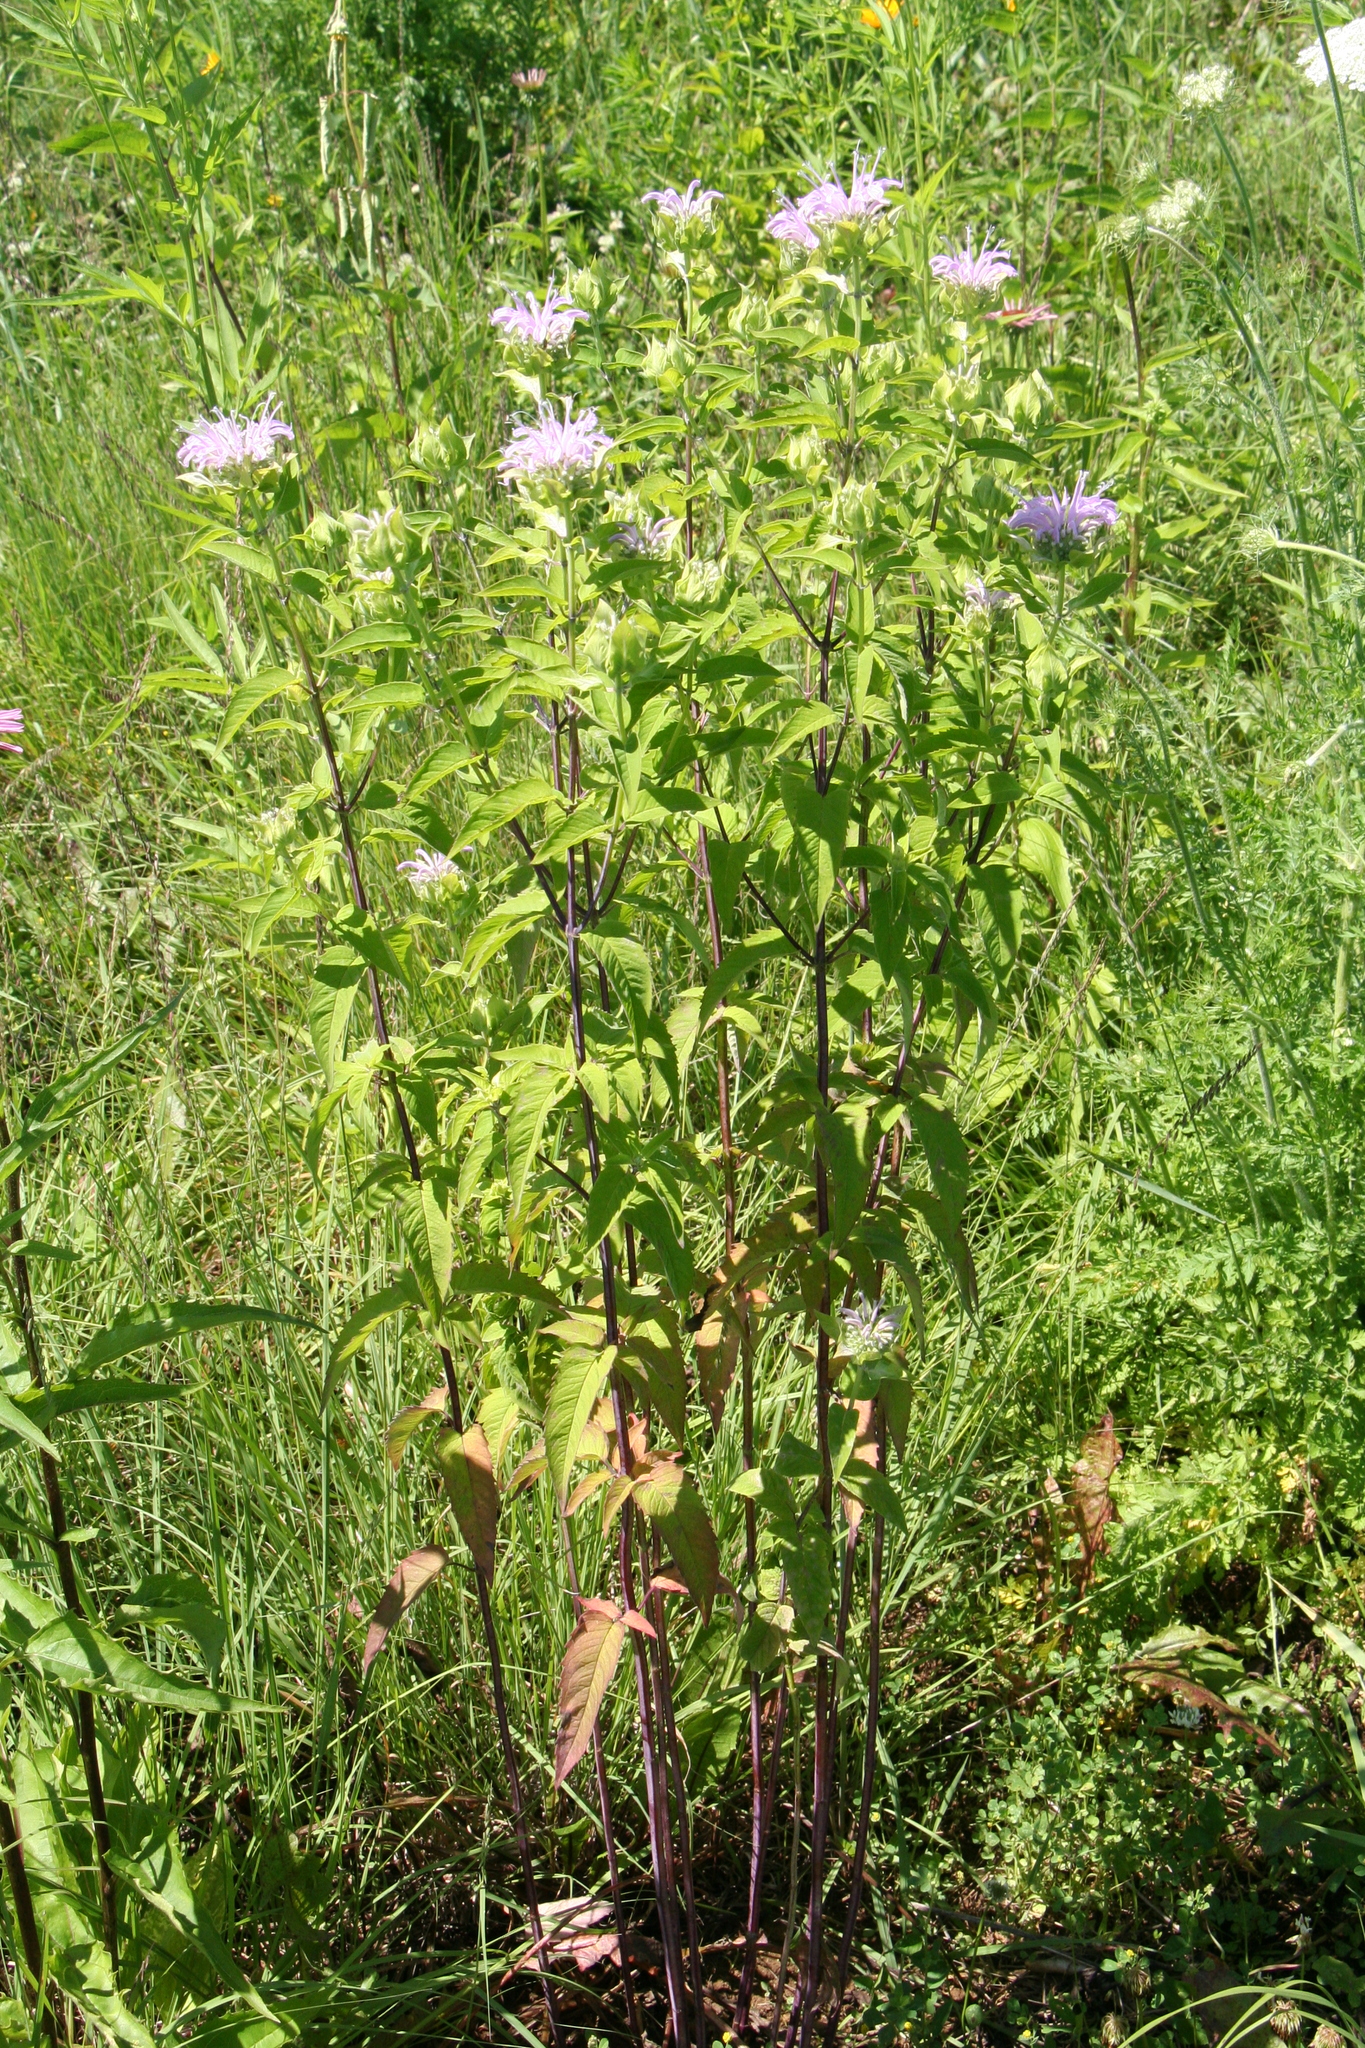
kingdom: Plantae
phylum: Tracheophyta
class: Magnoliopsida
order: Lamiales
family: Lamiaceae
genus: Monarda
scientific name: Monarda fistulosa
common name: Purple beebalm
